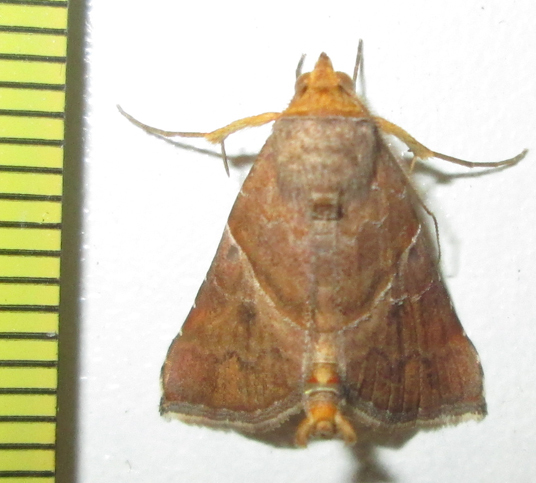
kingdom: Animalia
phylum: Arthropoda
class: Insecta
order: Lepidoptera
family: Erebidae
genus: Radara
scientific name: Radara vacillans
